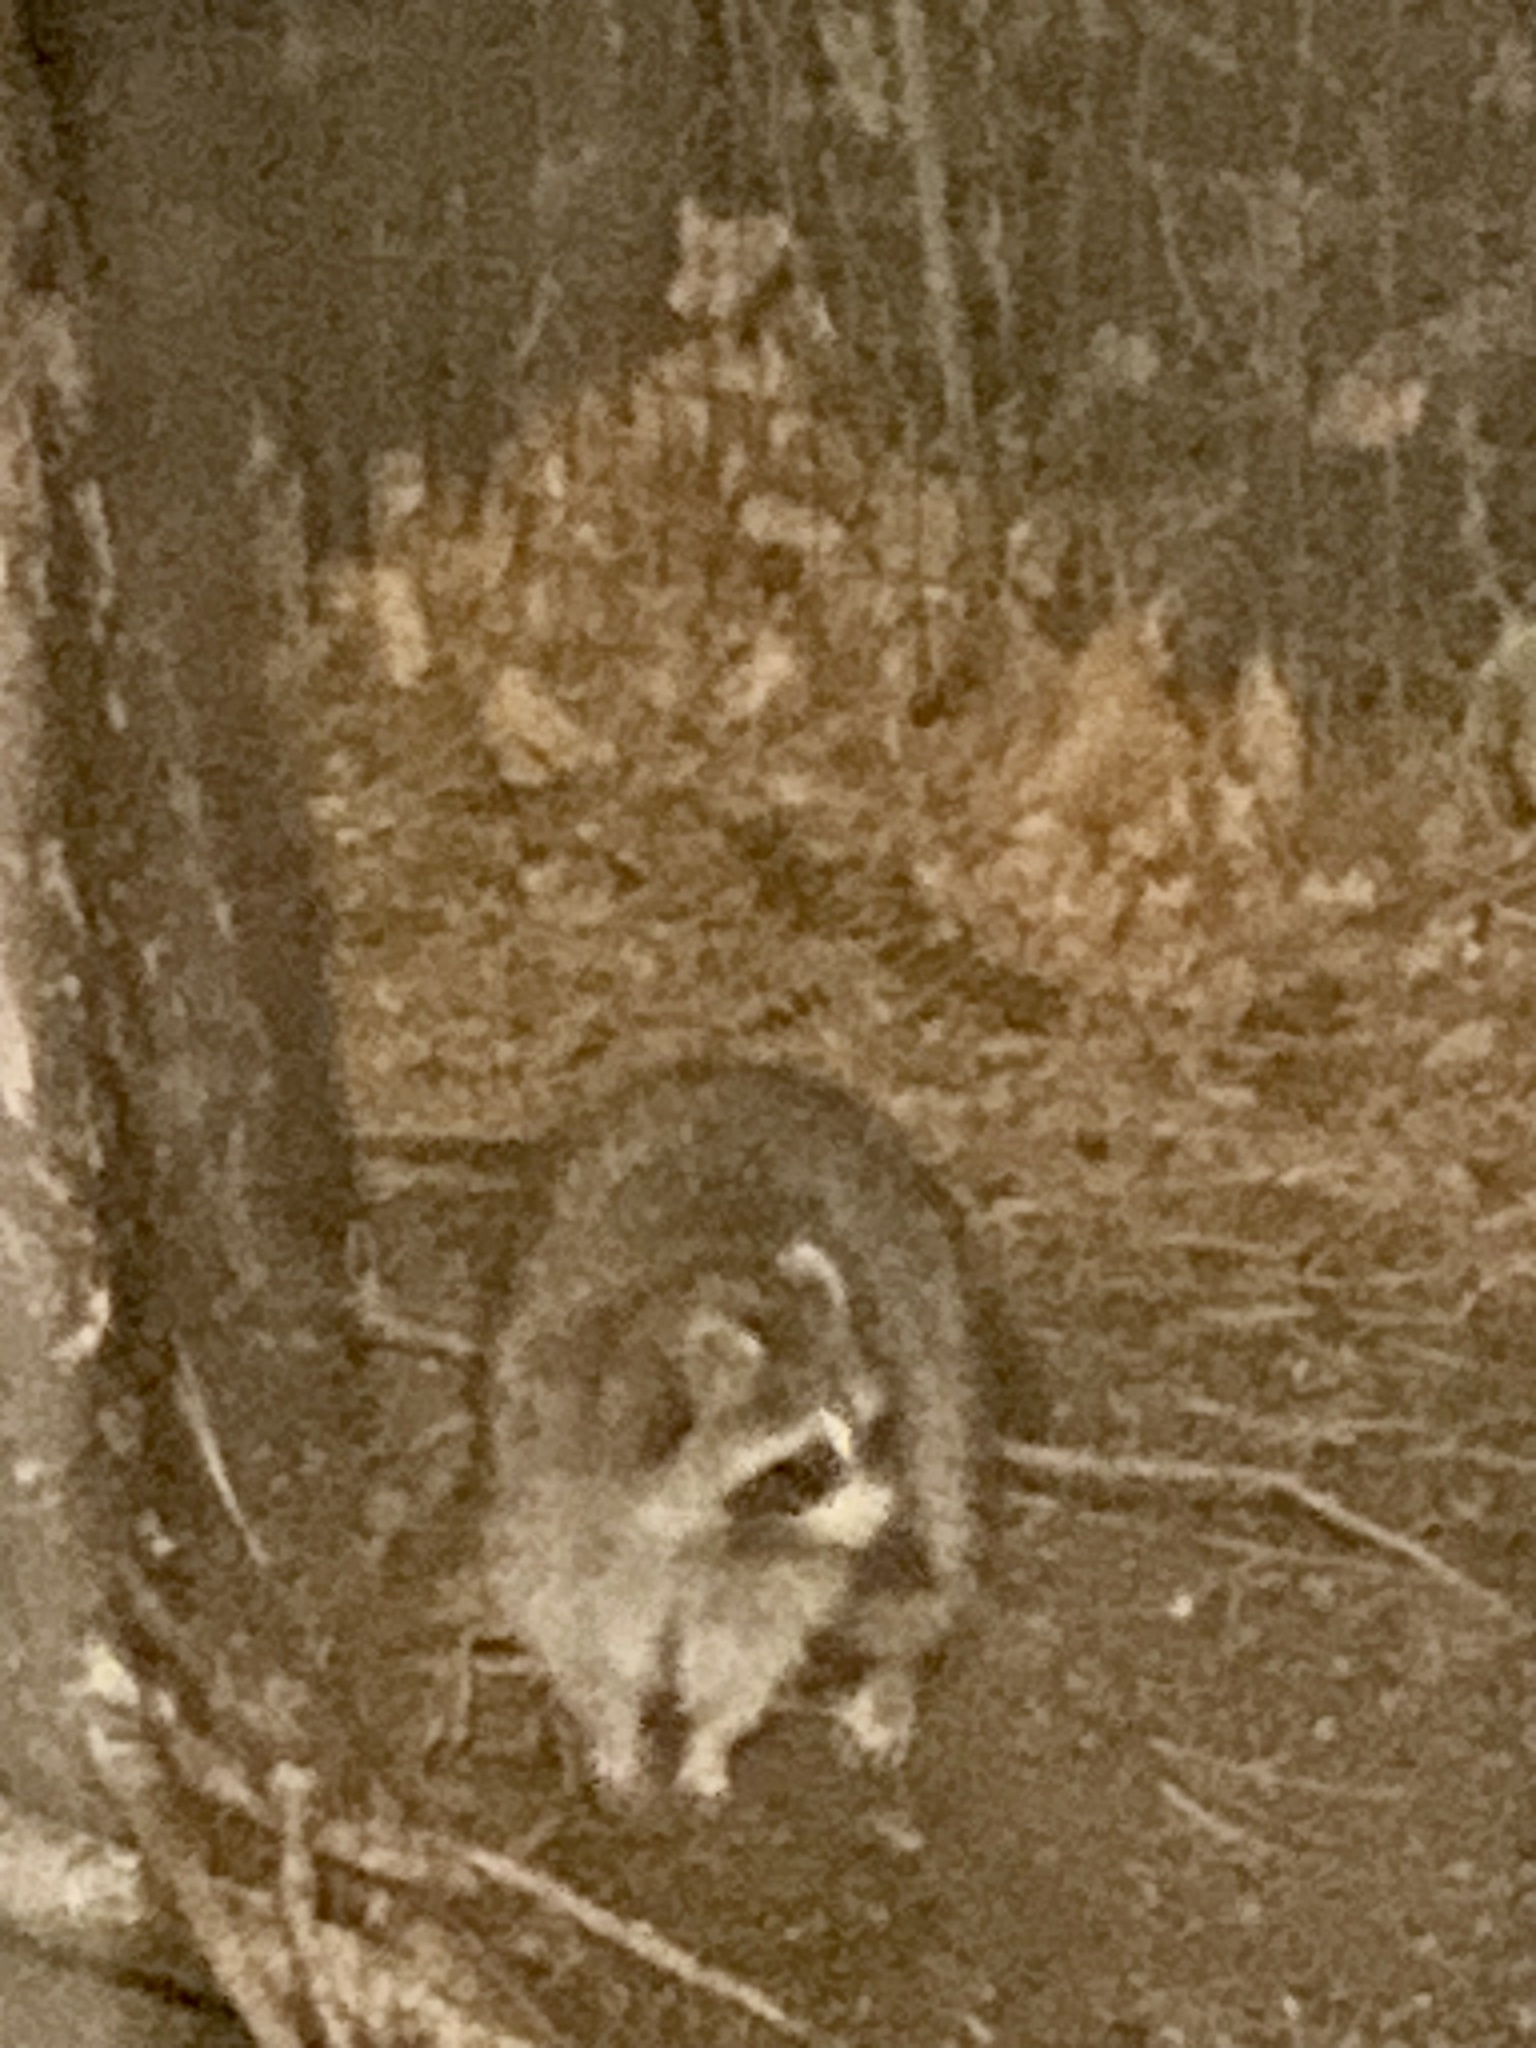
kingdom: Animalia
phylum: Chordata
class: Mammalia
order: Carnivora
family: Procyonidae
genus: Procyon
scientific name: Procyon lotor
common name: Raccoon
